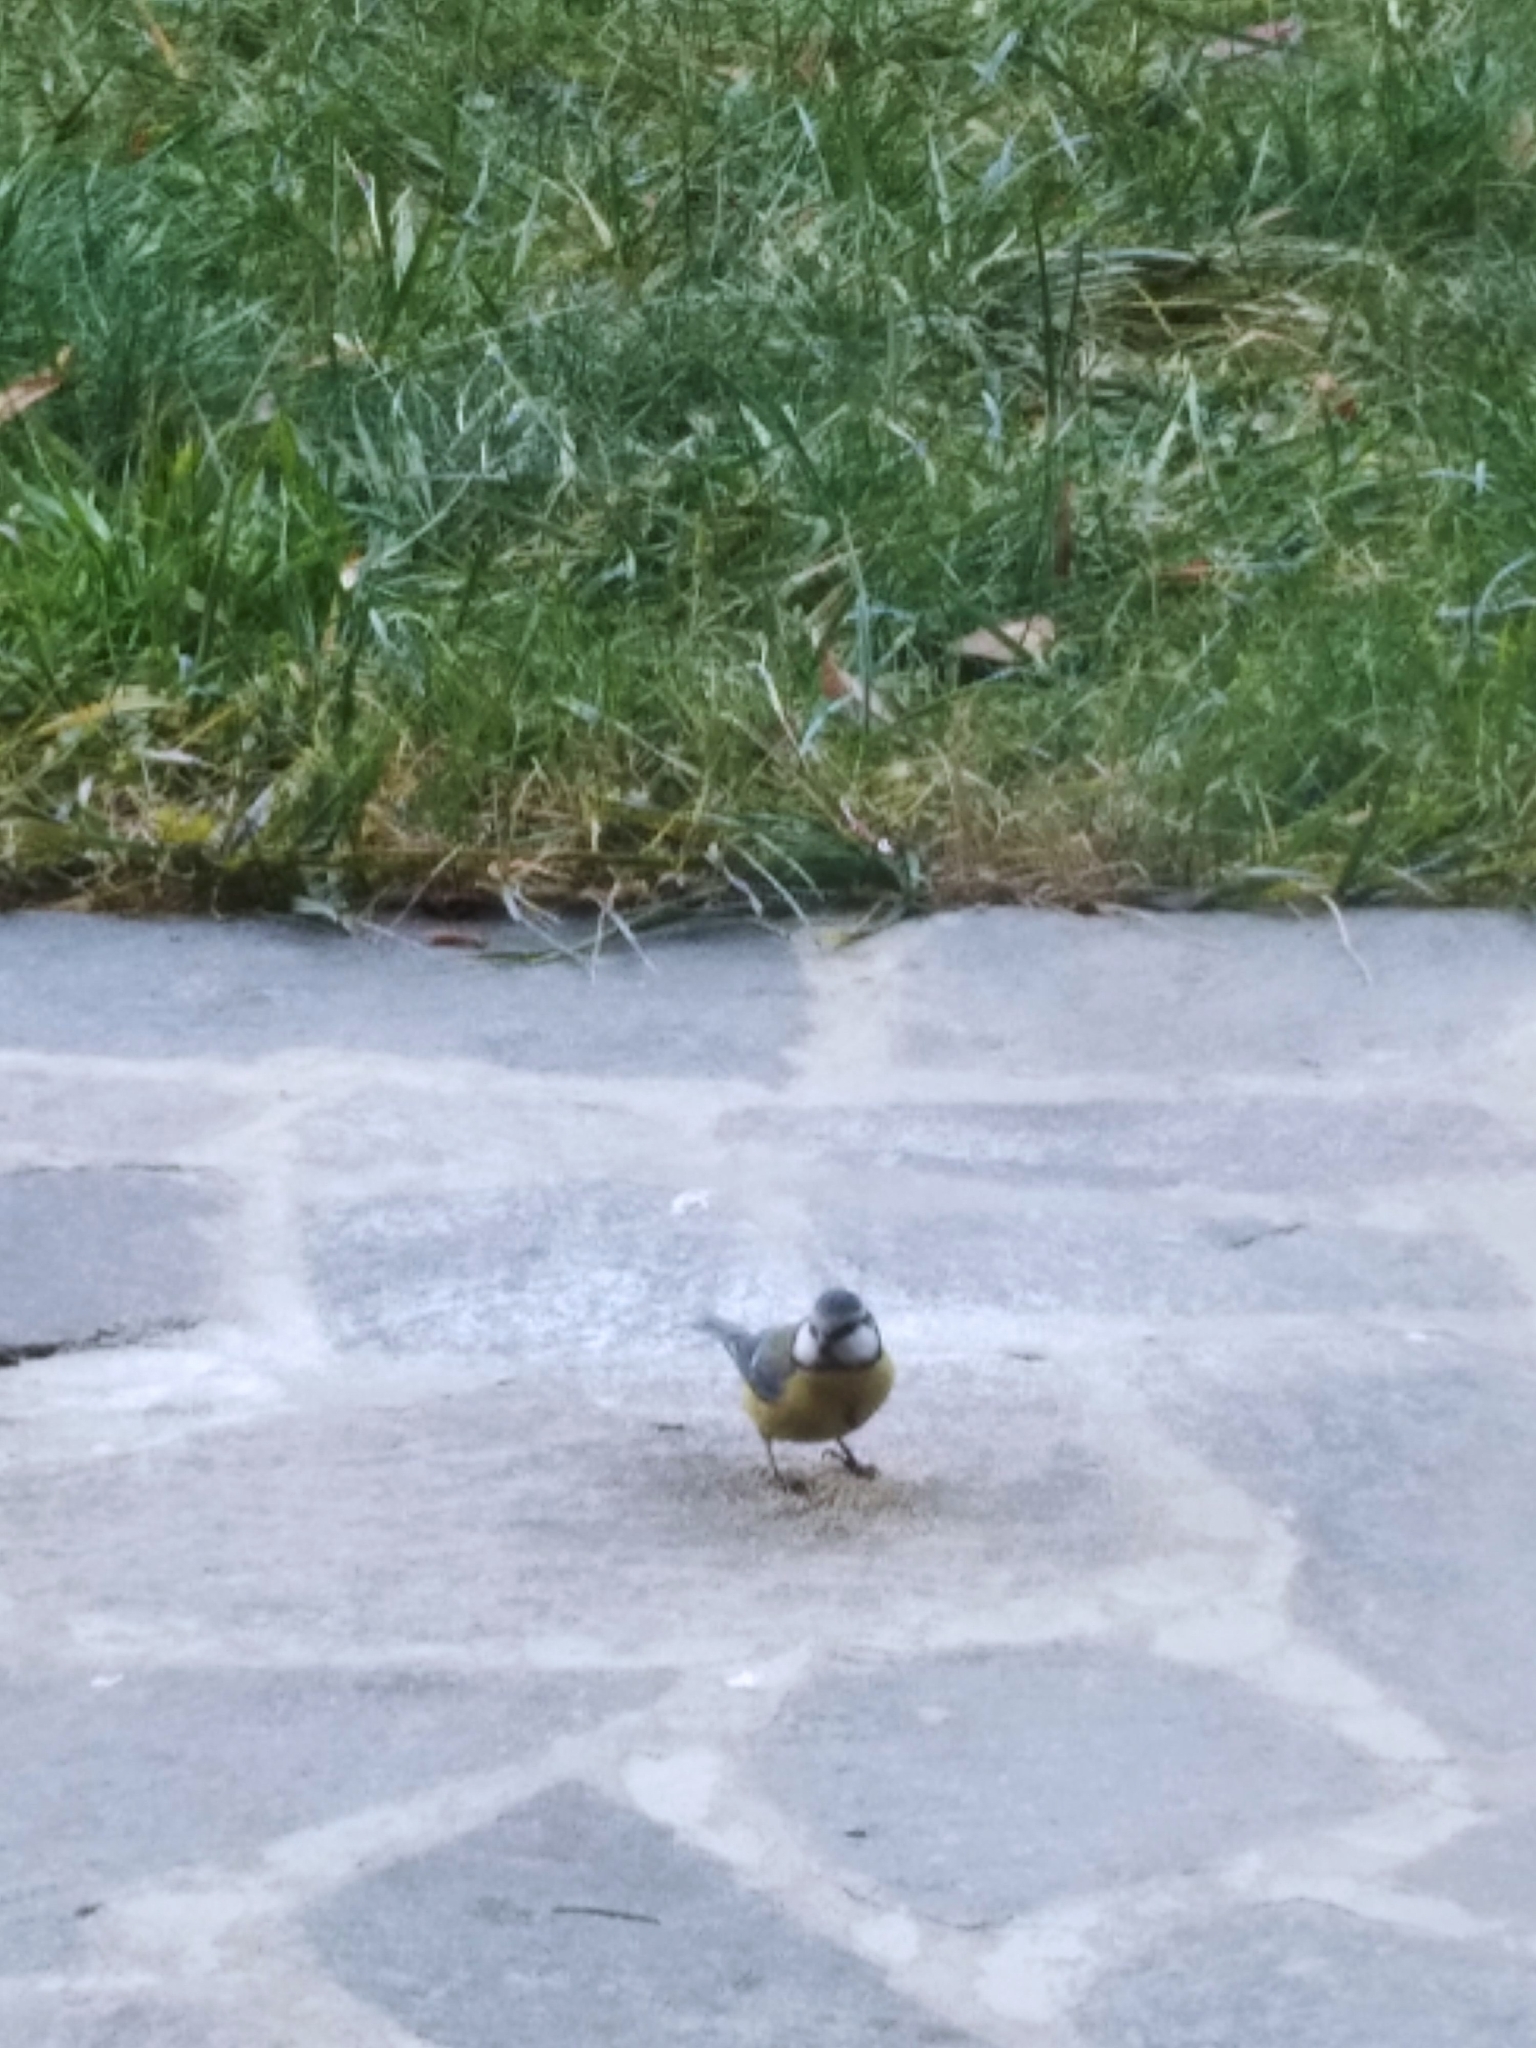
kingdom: Animalia
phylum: Chordata
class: Aves
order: Passeriformes
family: Paridae
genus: Cyanistes
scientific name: Cyanistes caeruleus
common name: Eurasian blue tit
